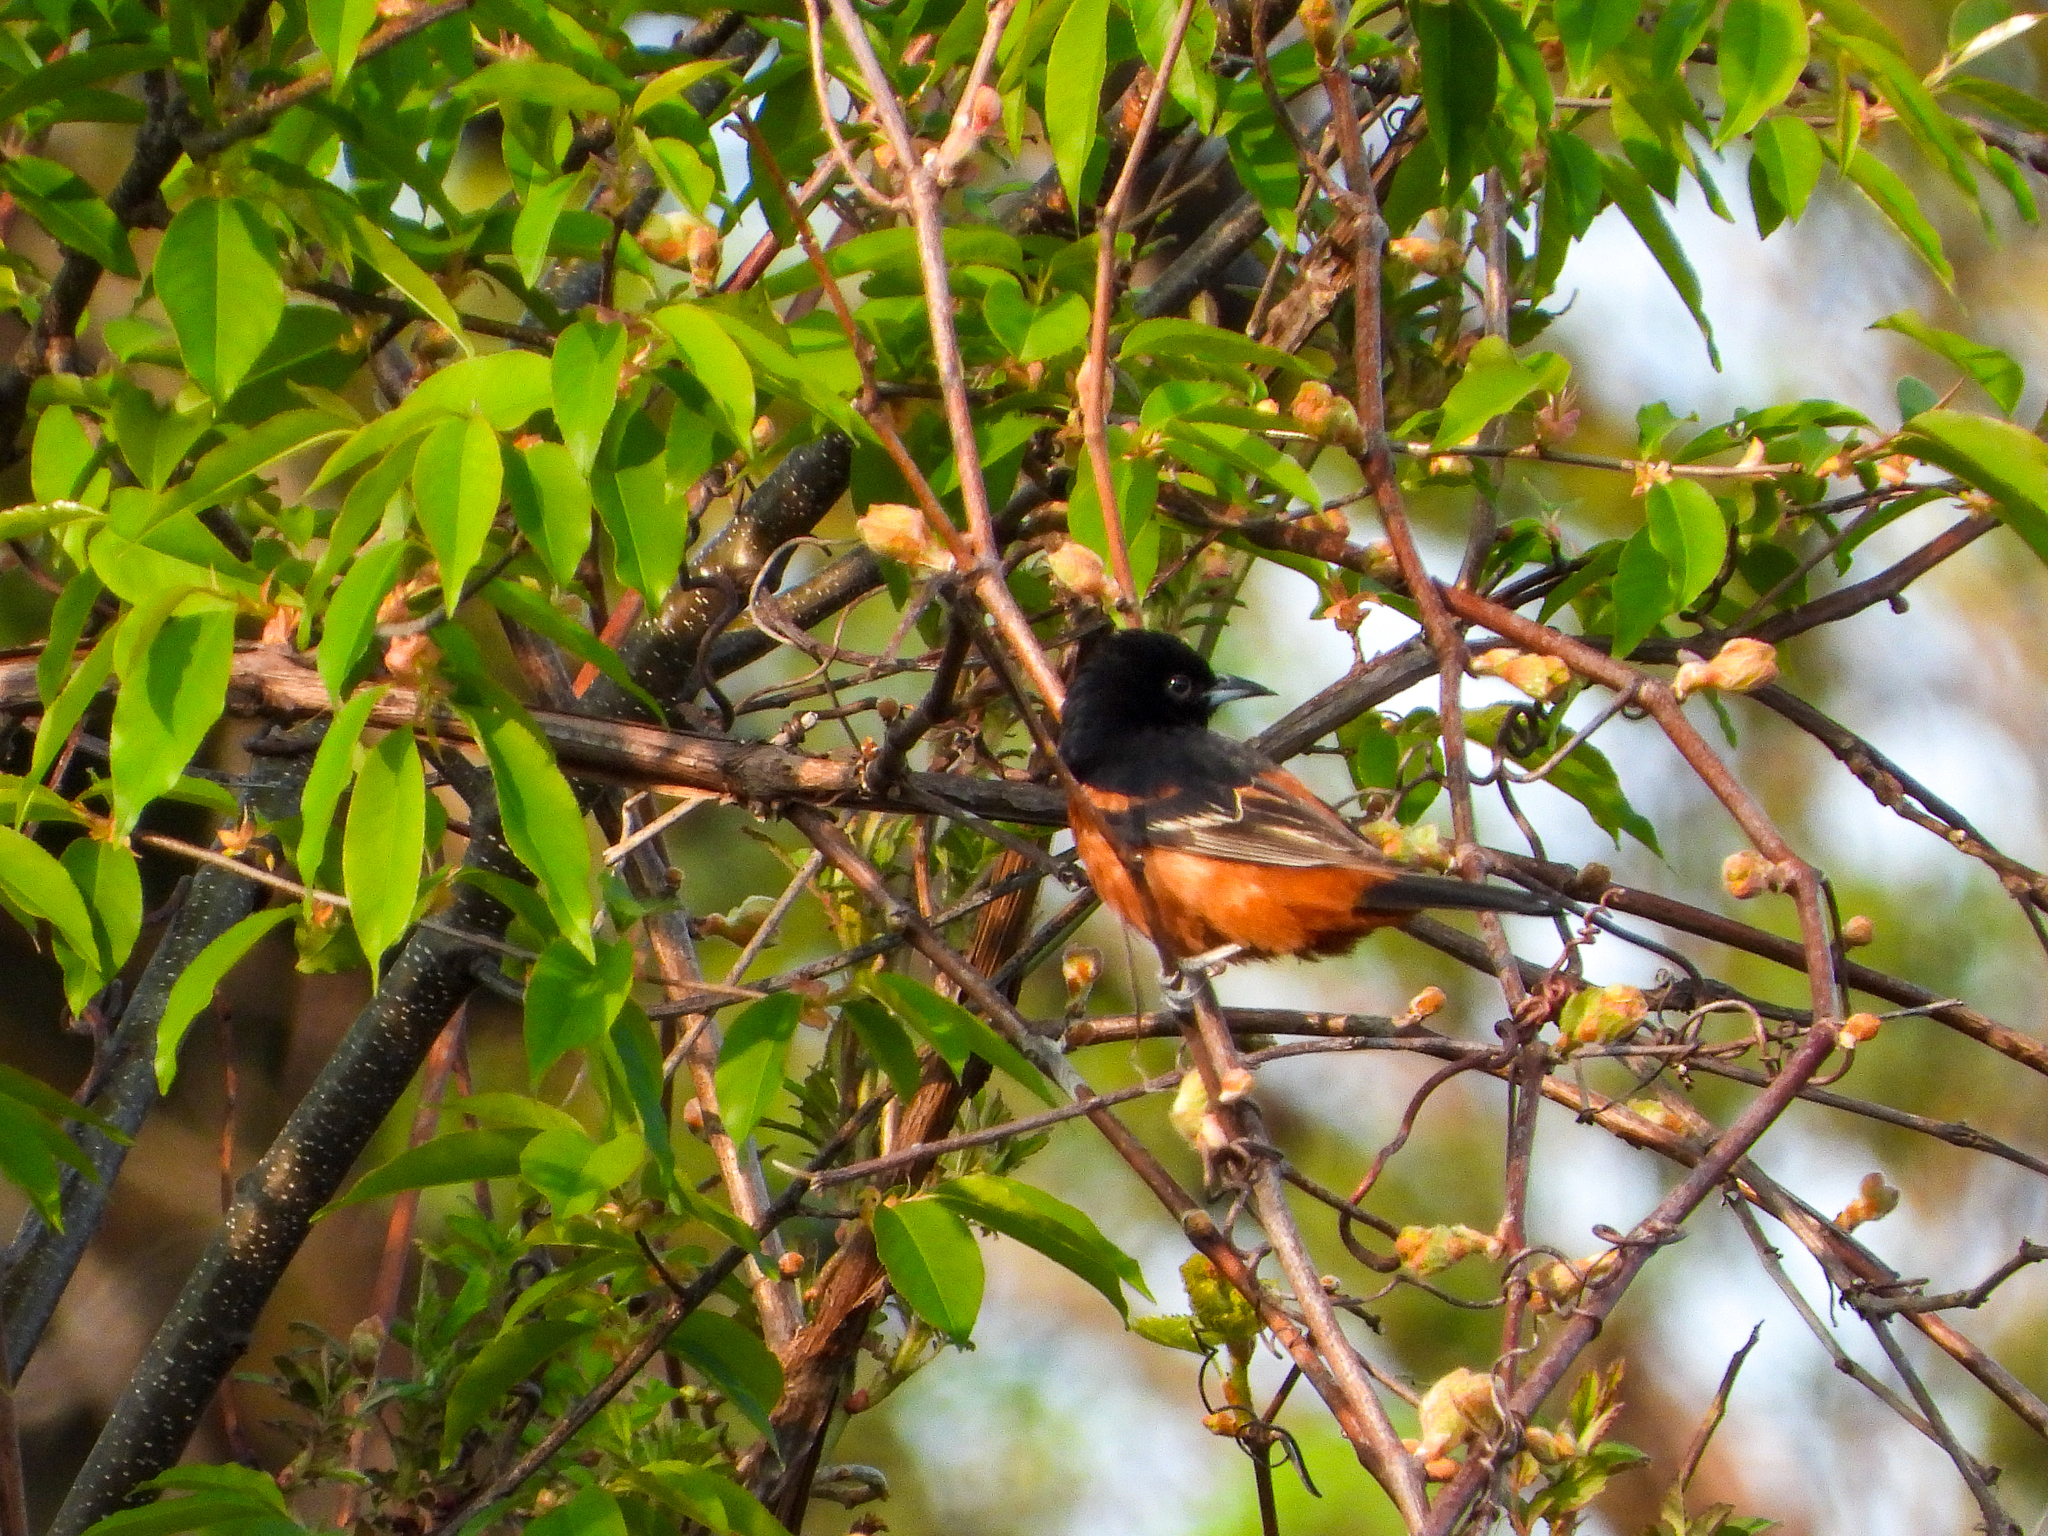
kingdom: Animalia
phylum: Chordata
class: Aves
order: Passeriformes
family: Icteridae
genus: Icterus
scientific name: Icterus spurius
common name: Orchard oriole
